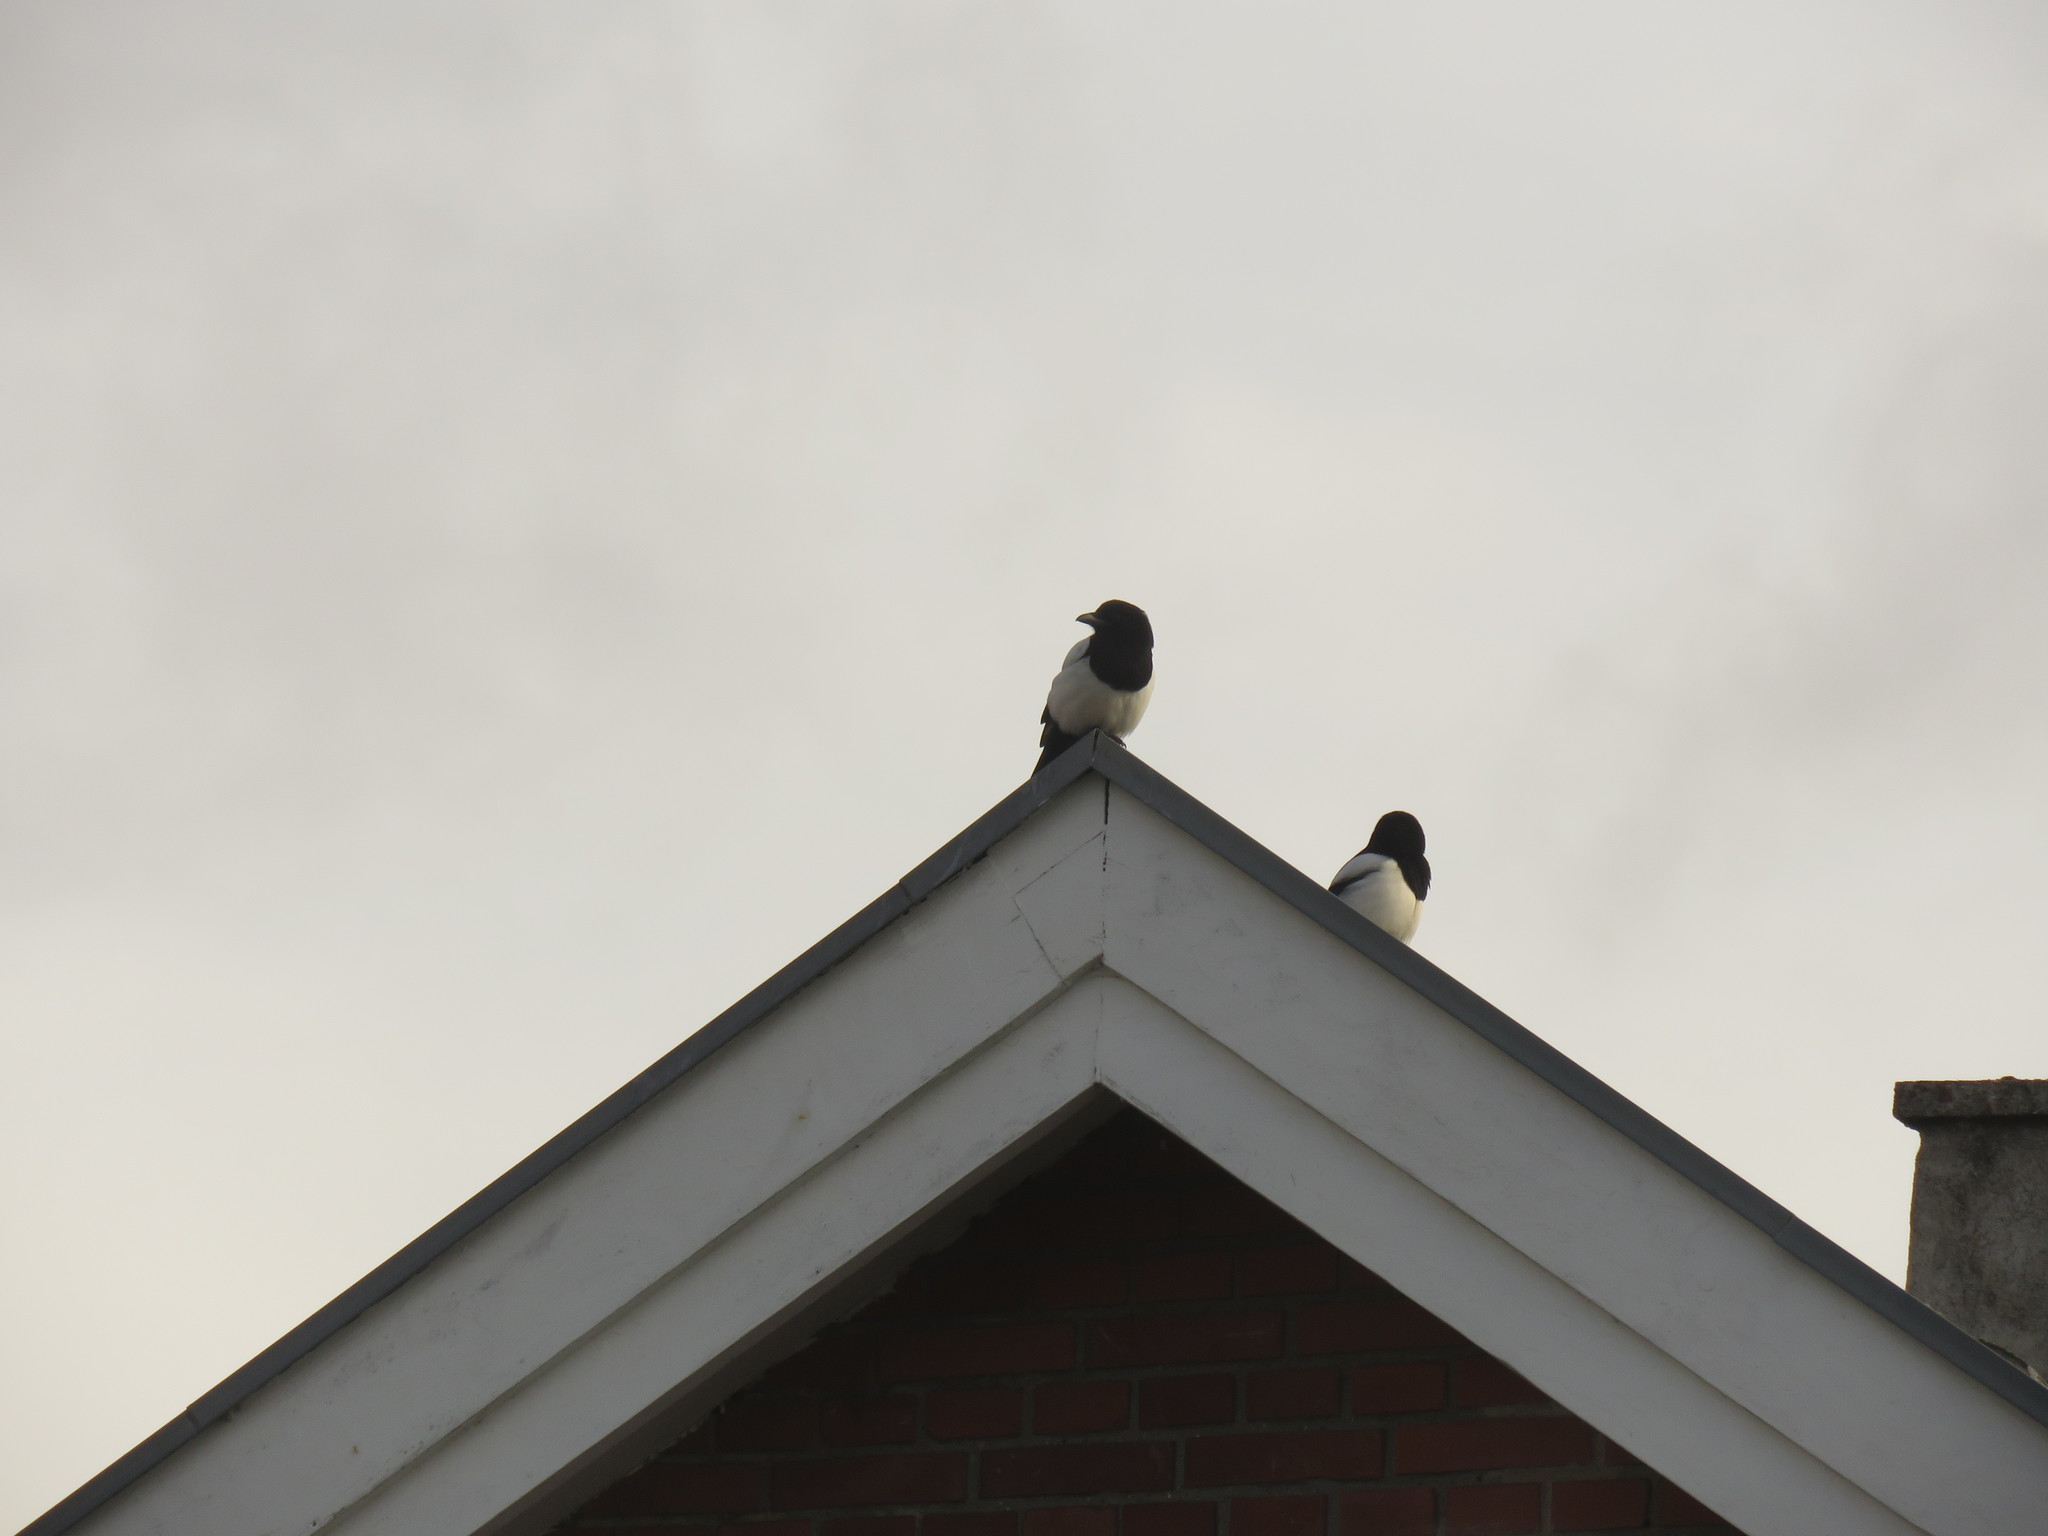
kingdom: Animalia
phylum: Chordata
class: Aves
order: Passeriformes
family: Corvidae
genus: Pica
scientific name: Pica pica
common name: Eurasian magpie
